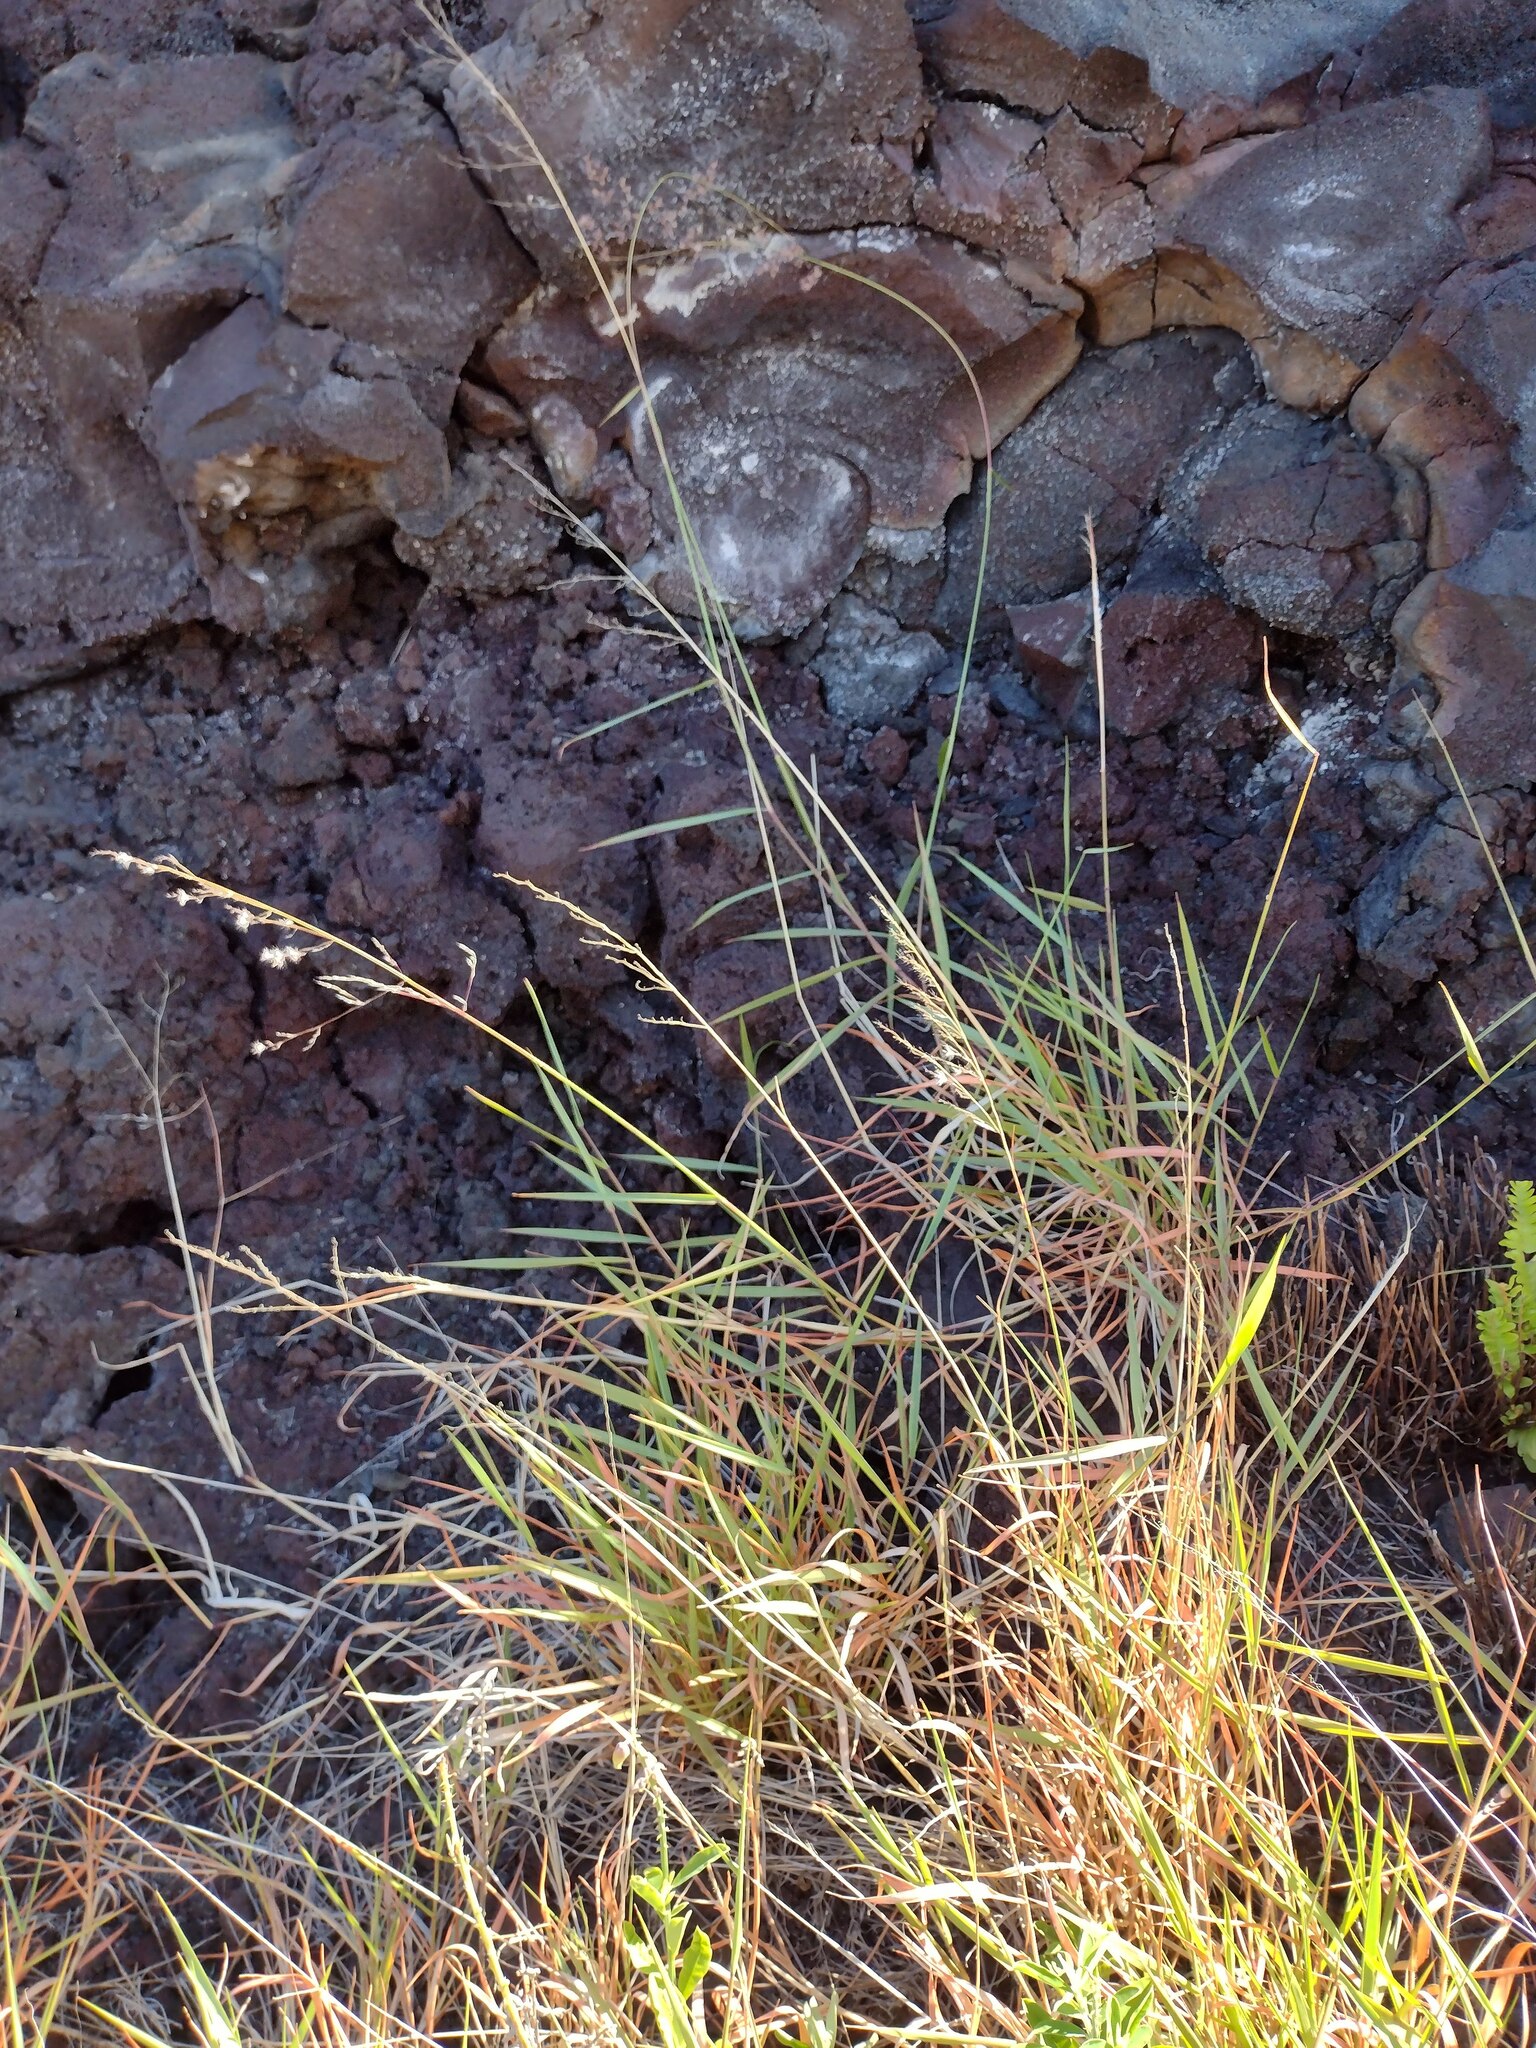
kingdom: Plantae
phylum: Tracheophyta
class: Liliopsida
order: Poales
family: Poaceae
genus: Melinis
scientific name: Melinis repens
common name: Rose natal grass
